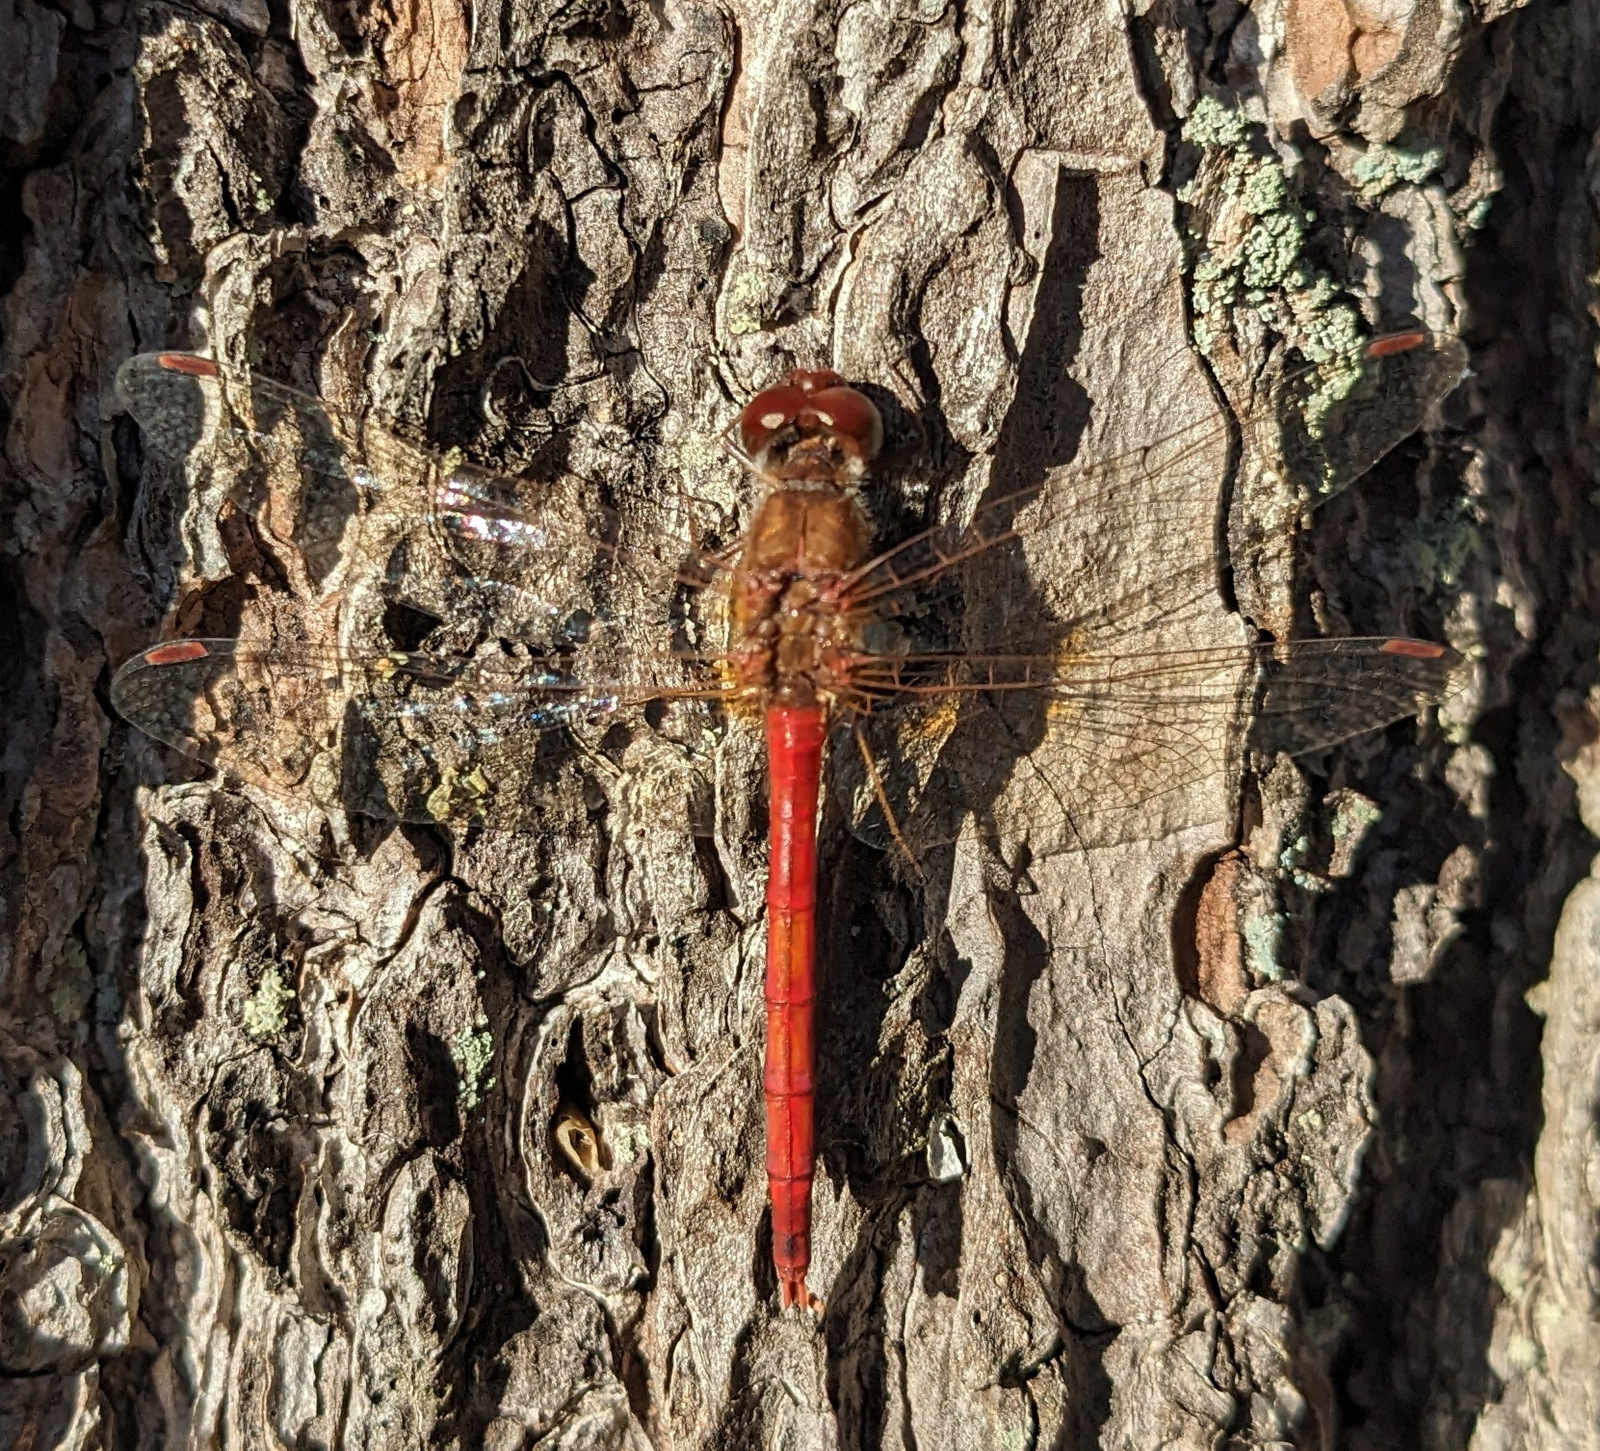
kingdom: Animalia
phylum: Arthropoda
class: Insecta
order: Odonata
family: Libellulidae
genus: Sympetrum
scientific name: Sympetrum vicinum
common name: Autumn meadowhawk
